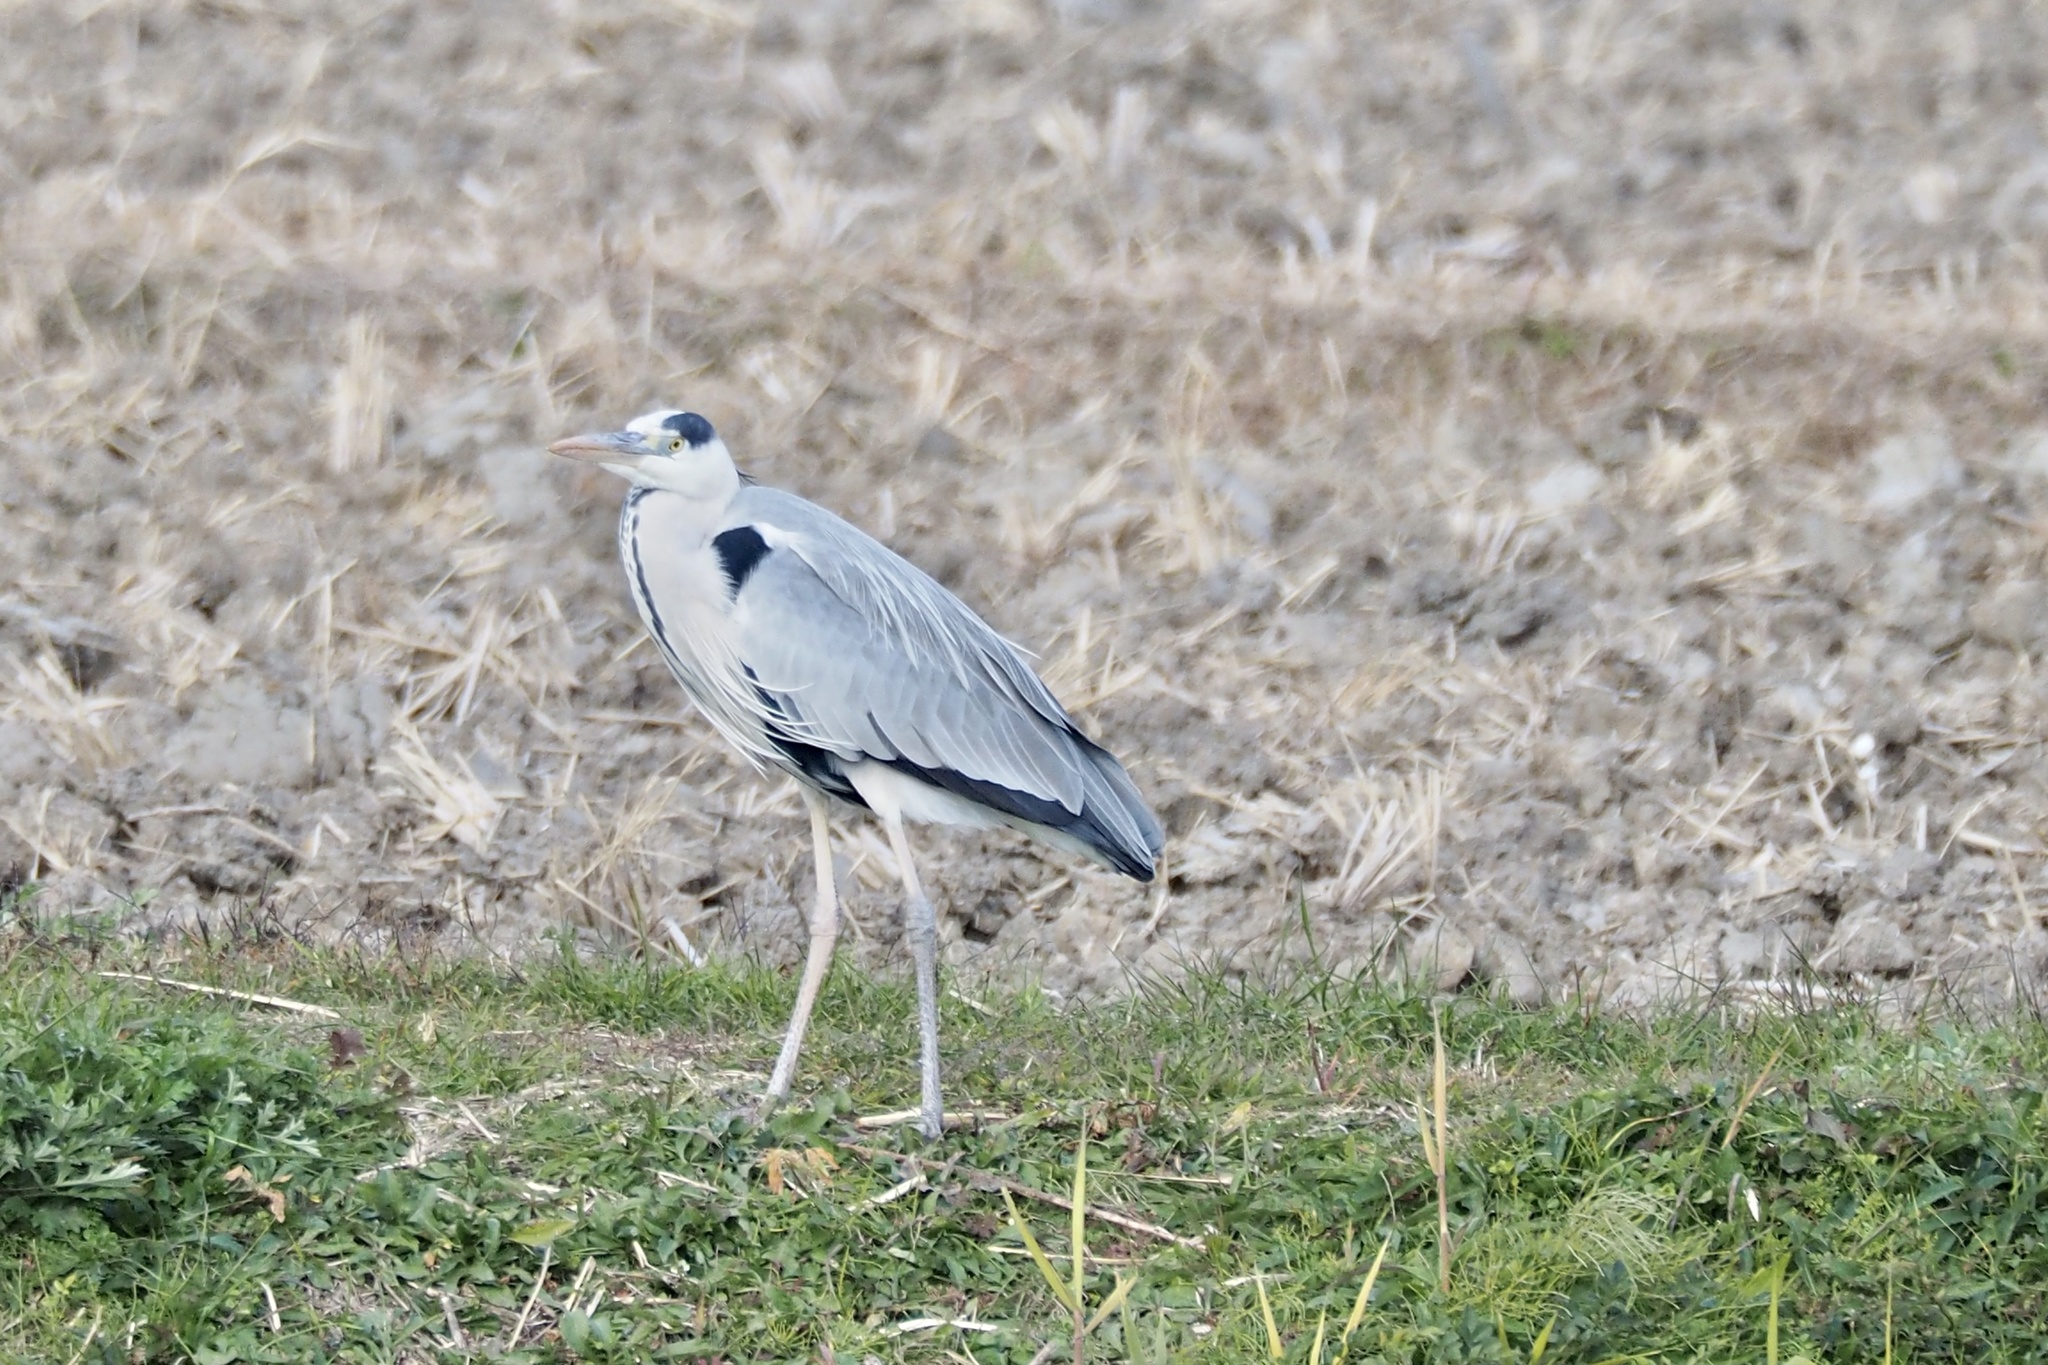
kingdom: Animalia
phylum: Chordata
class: Aves
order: Pelecaniformes
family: Ardeidae
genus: Ardea
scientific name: Ardea cinerea
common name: Grey heron
